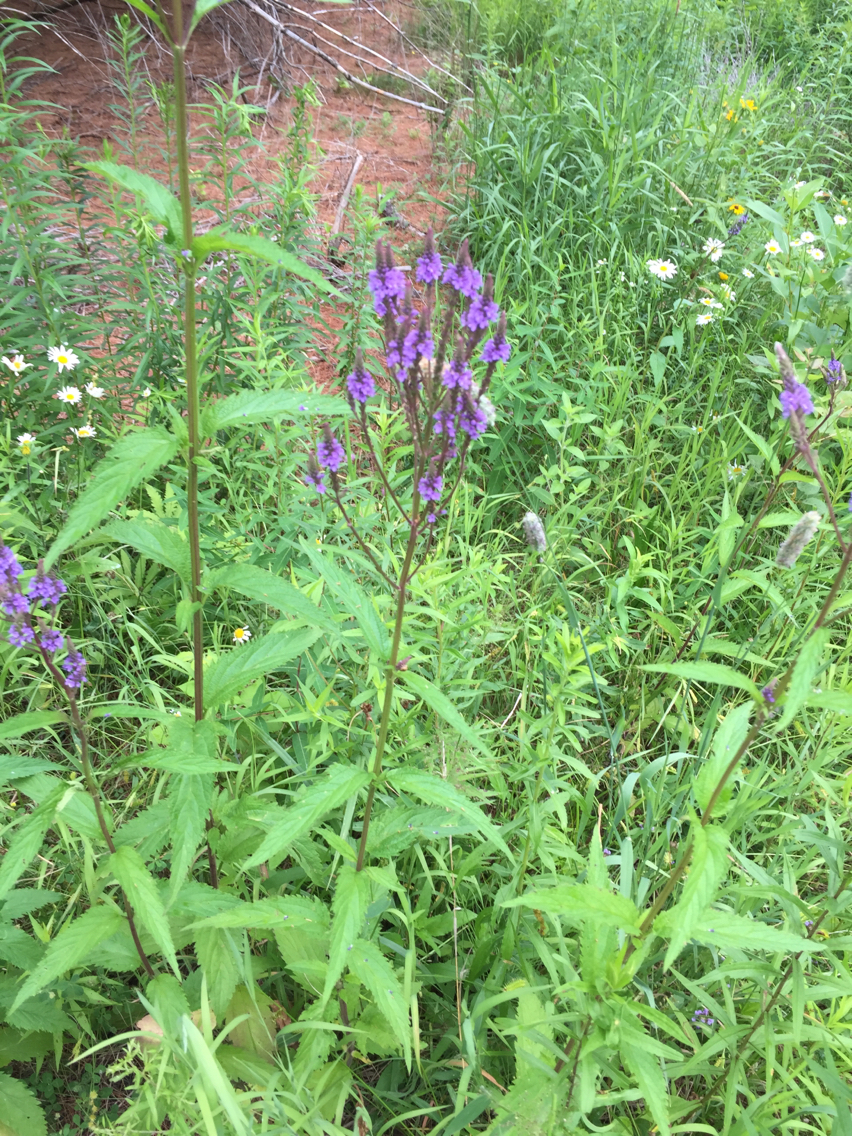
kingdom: Plantae
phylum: Tracheophyta
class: Magnoliopsida
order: Lamiales
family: Verbenaceae
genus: Verbena
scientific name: Verbena hastata
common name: American blue vervain
